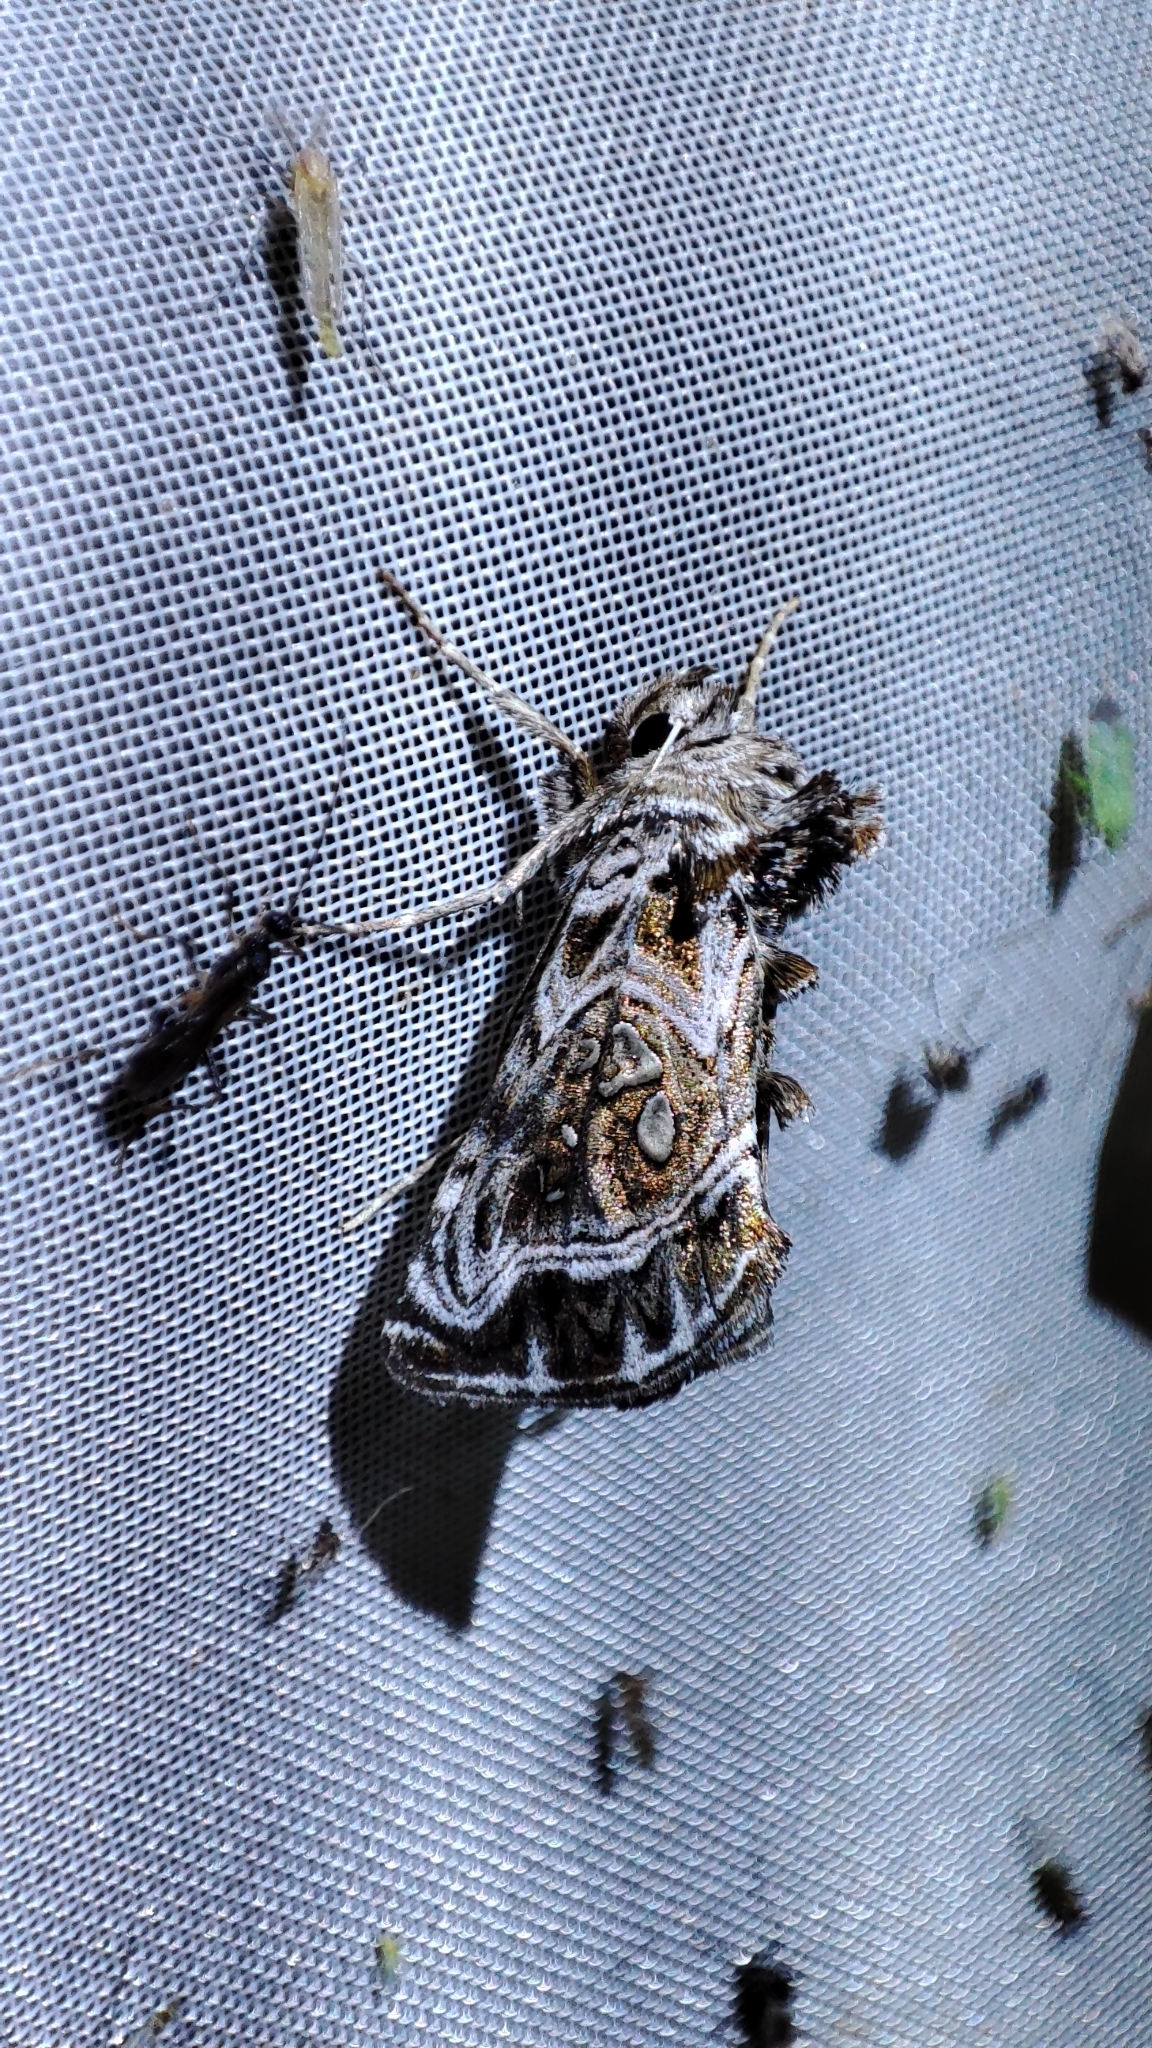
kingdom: Animalia
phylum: Arthropoda
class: Insecta
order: Lepidoptera
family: Noctuidae
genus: Panchrysia
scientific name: Panchrysia ornata
